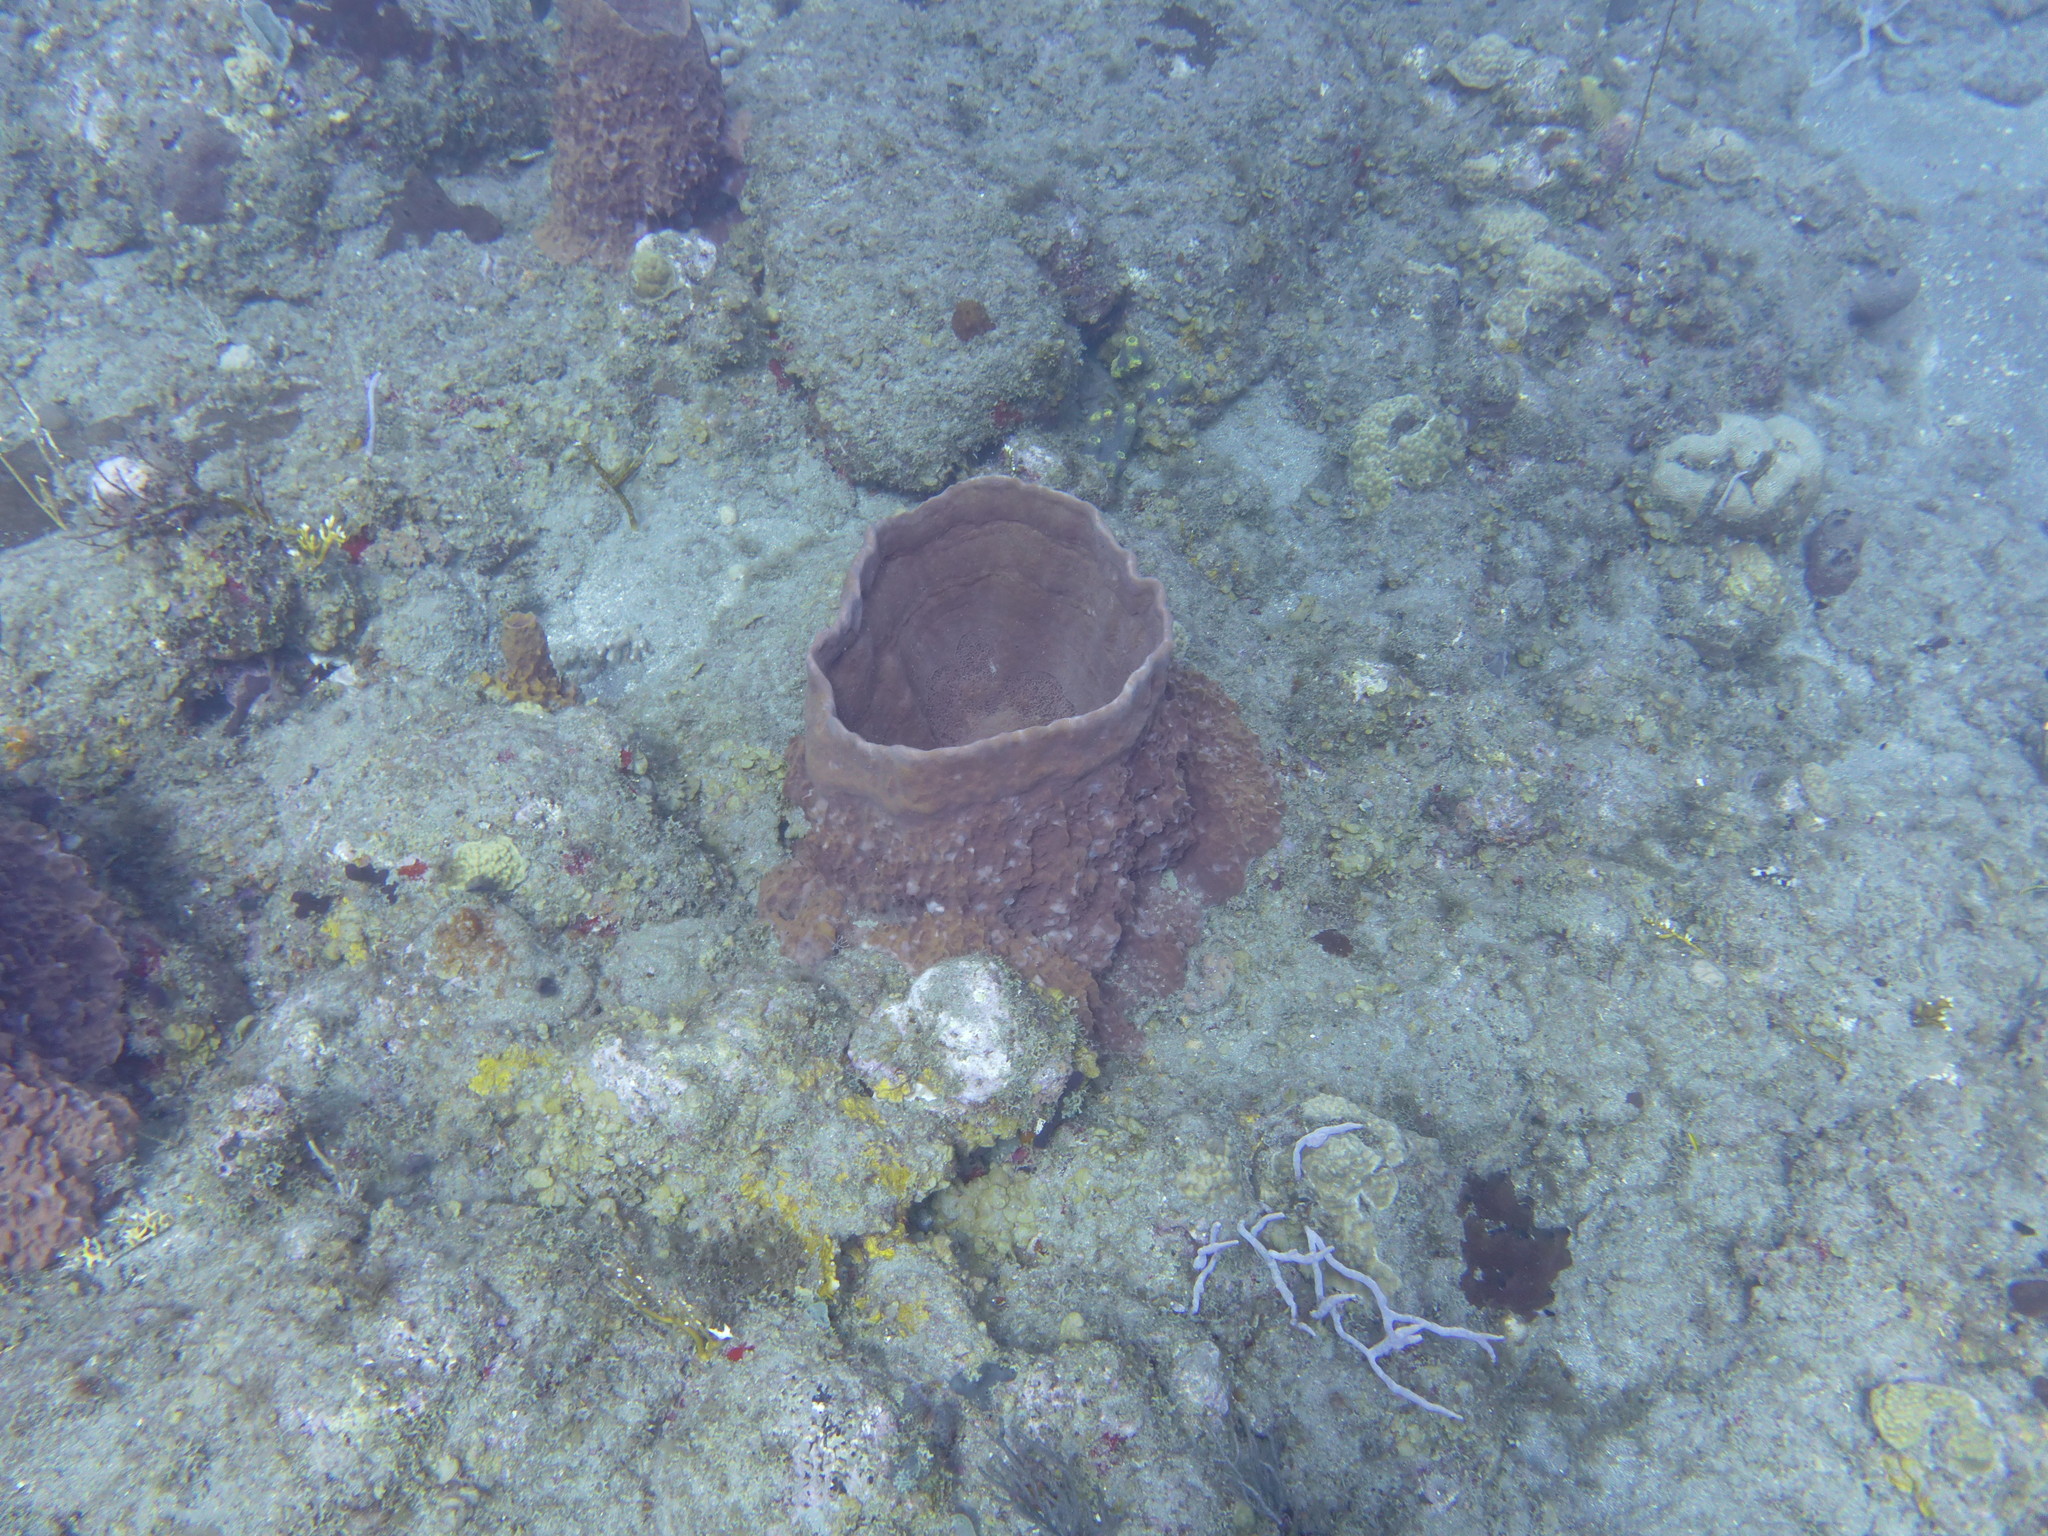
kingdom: Animalia
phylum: Porifera
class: Demospongiae
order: Haplosclerida
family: Petrosiidae
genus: Xestospongia
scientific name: Xestospongia muta
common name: Giant barrel sponge
